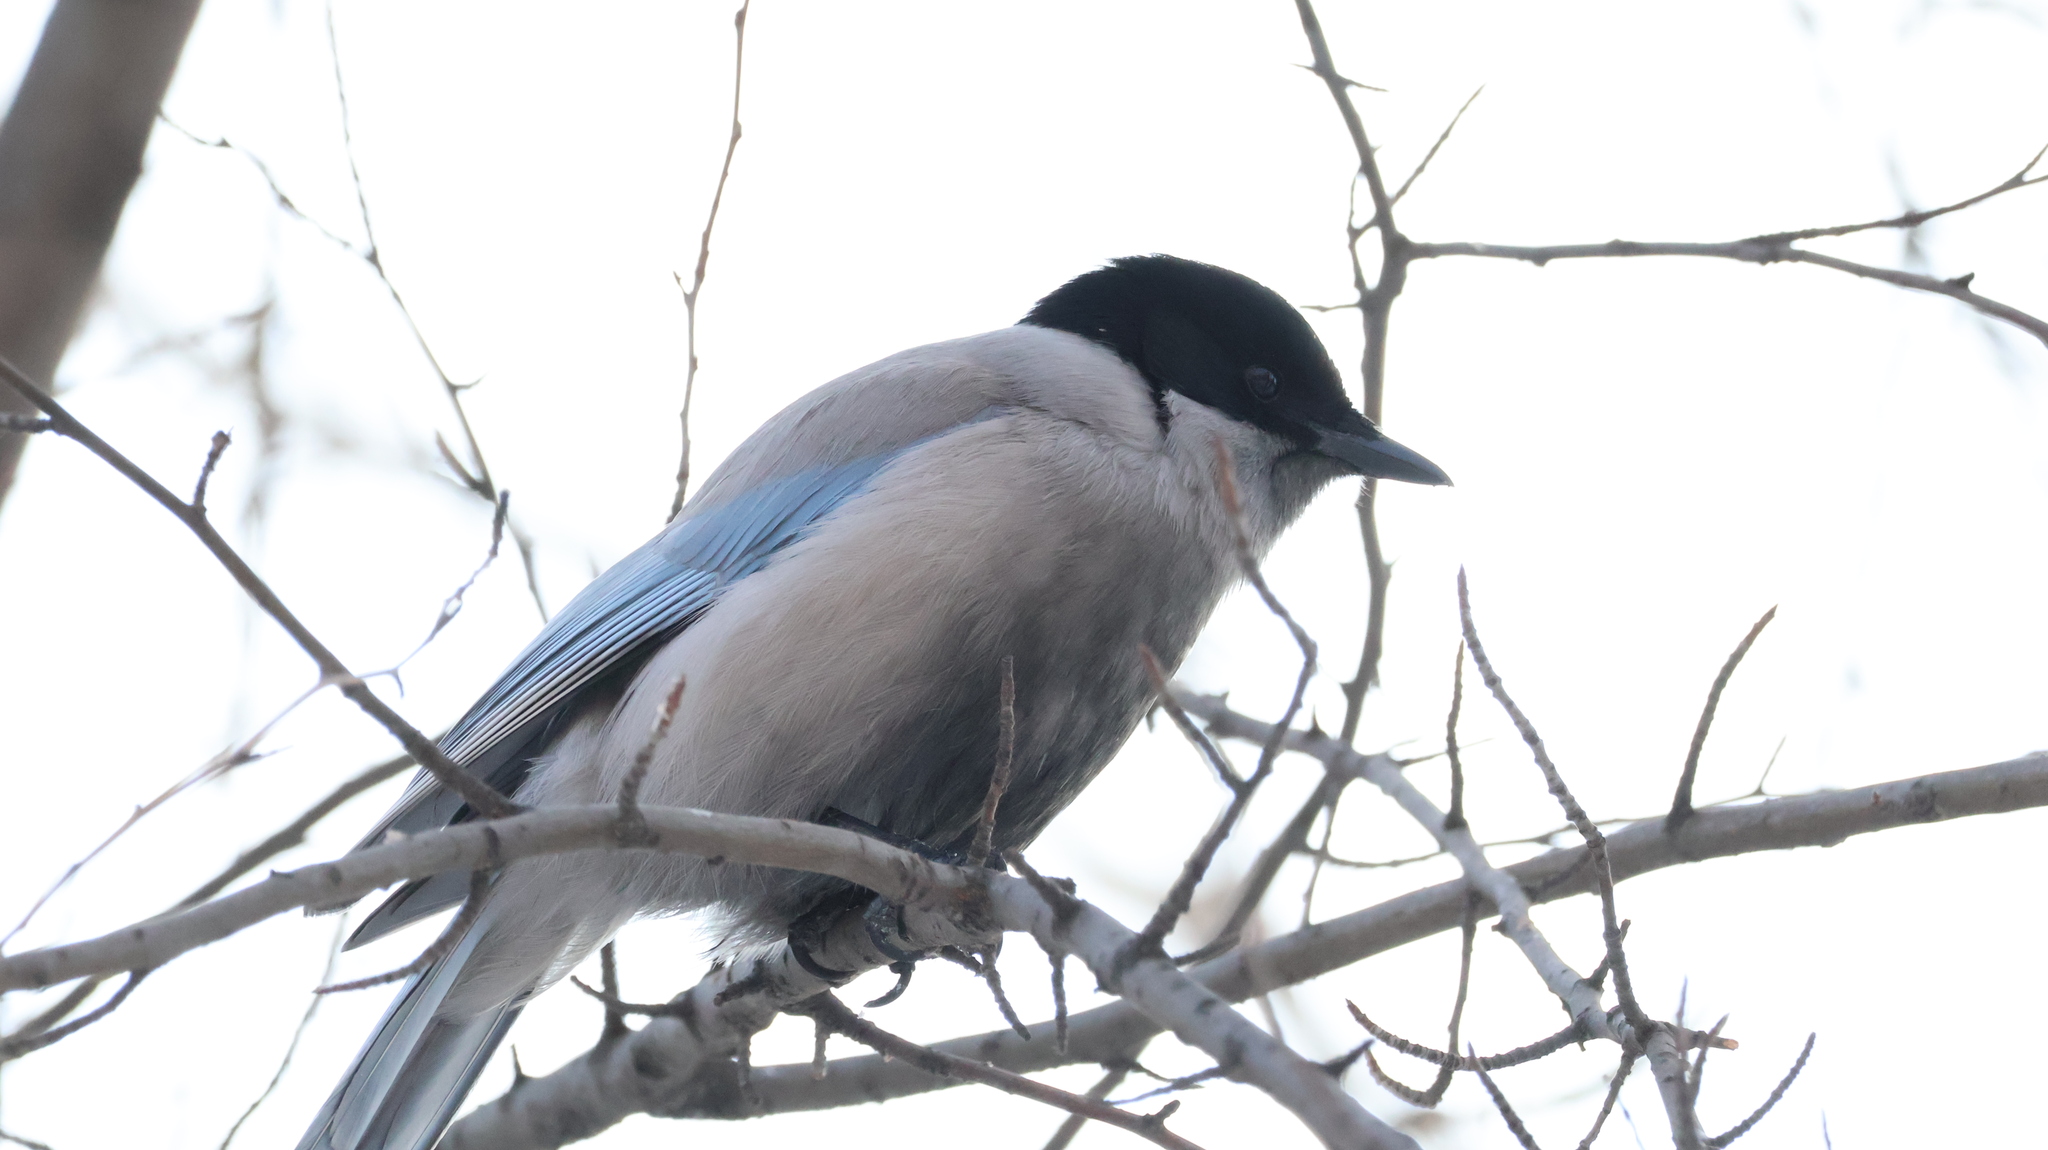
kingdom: Animalia
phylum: Chordata
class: Aves
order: Passeriformes
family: Corvidae
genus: Cyanopica
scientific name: Cyanopica cyanus
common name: Azure-winged magpie
